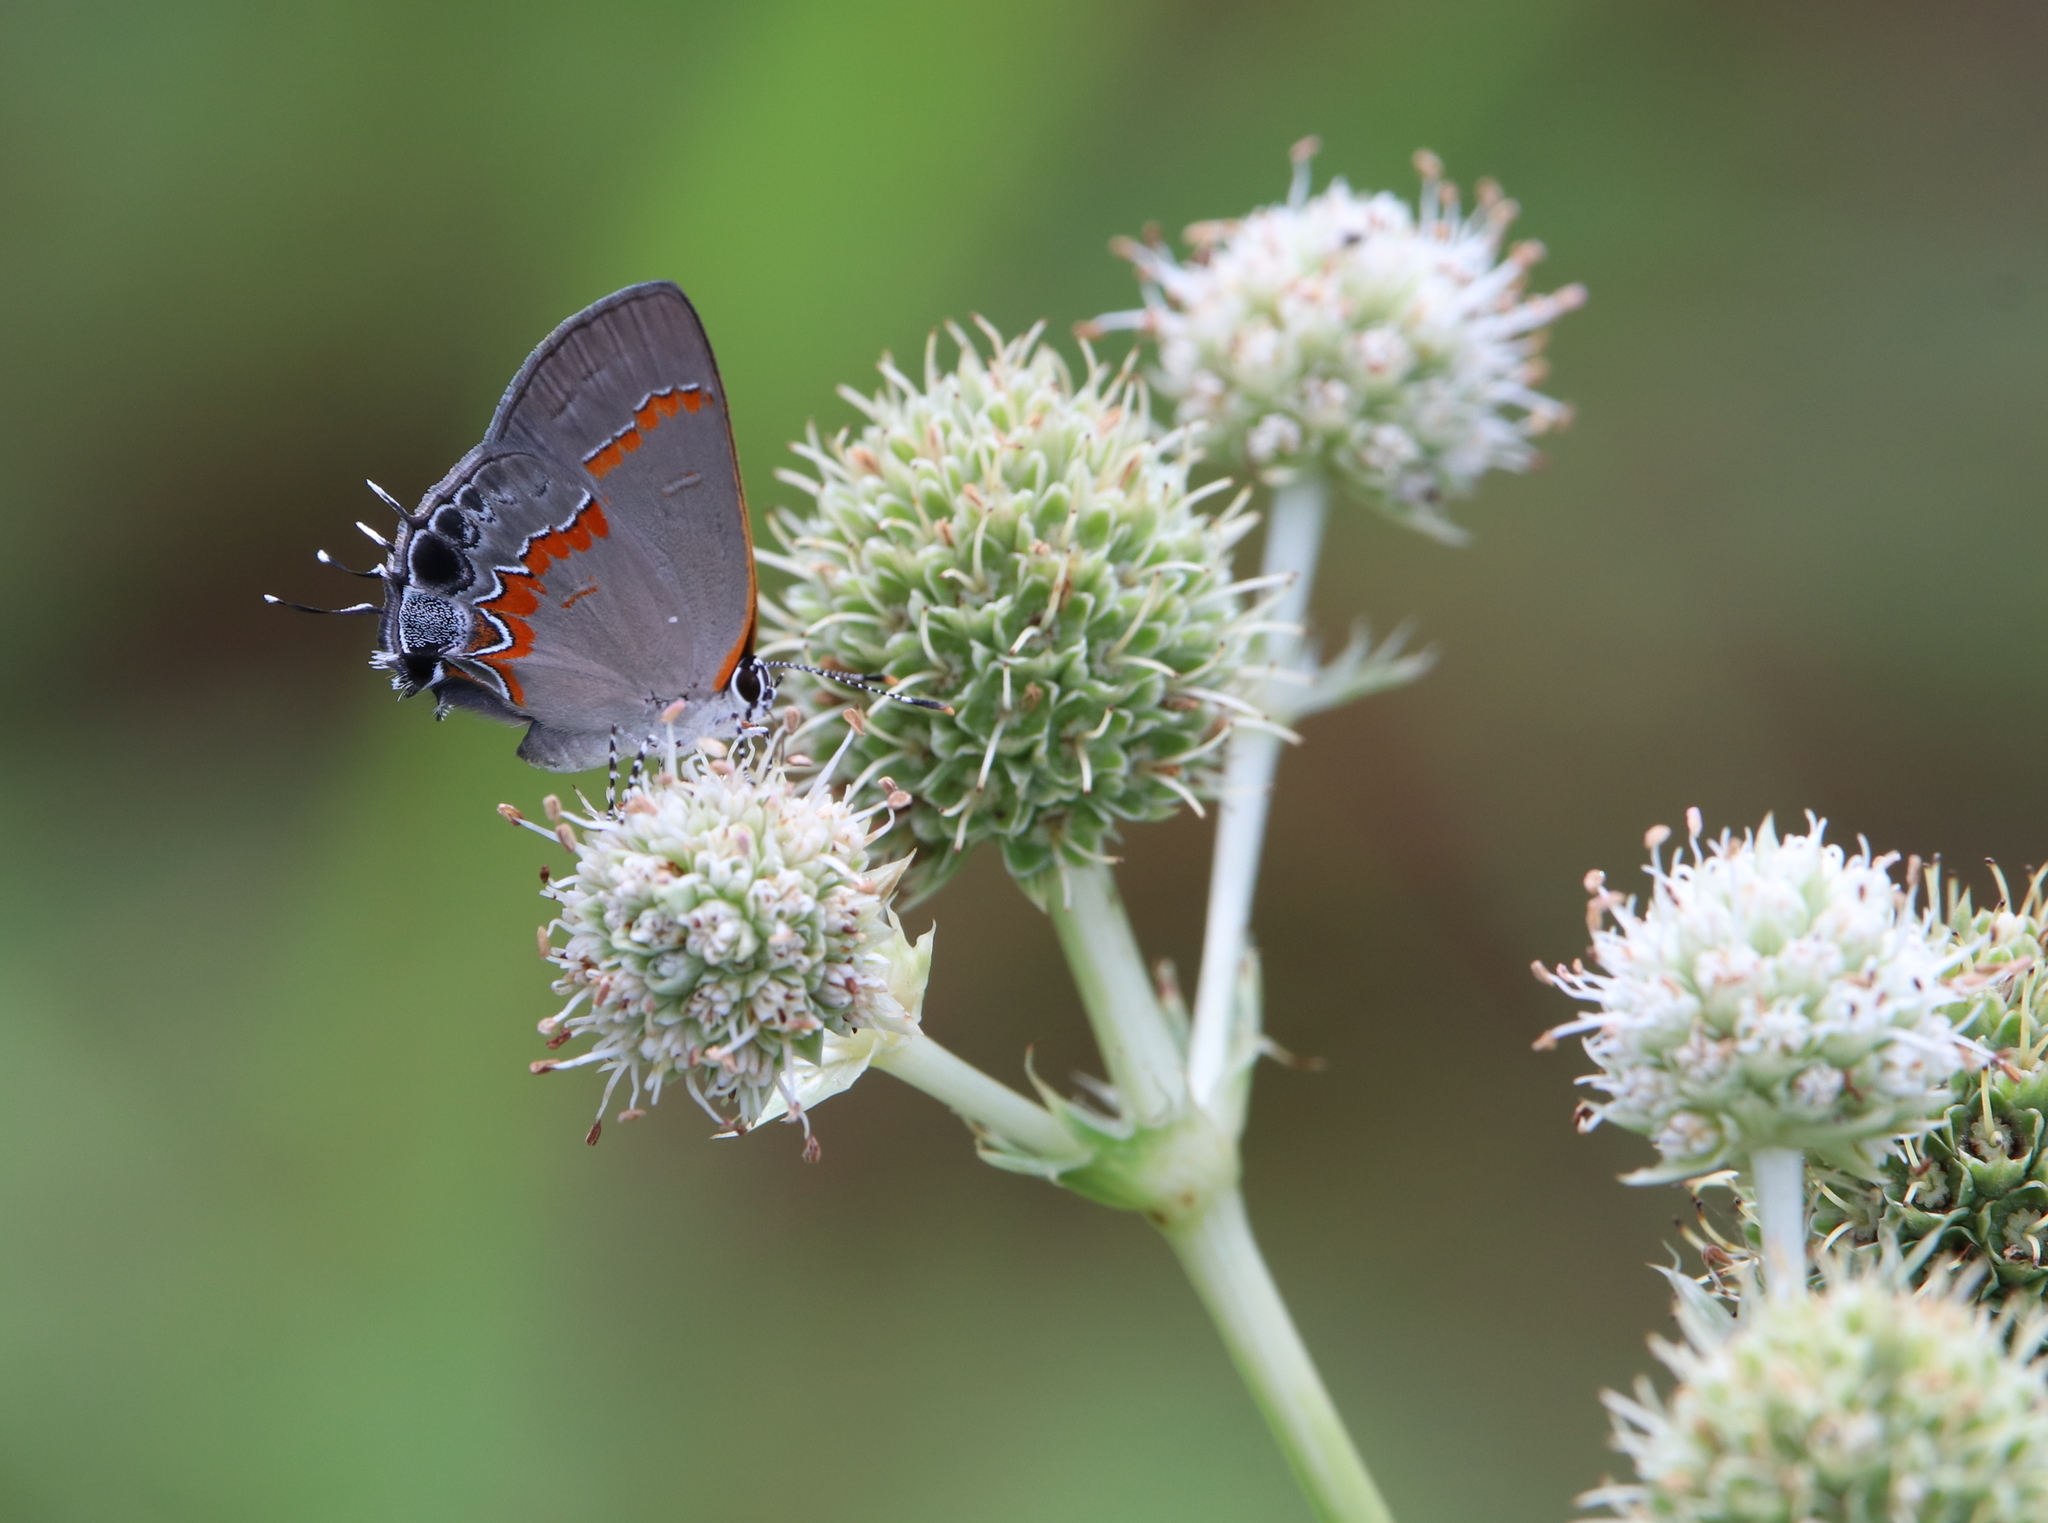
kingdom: Animalia
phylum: Arthropoda
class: Insecta
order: Lepidoptera
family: Lycaenidae
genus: Calycopis
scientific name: Calycopis cecrops
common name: Red-banded hairstreak
